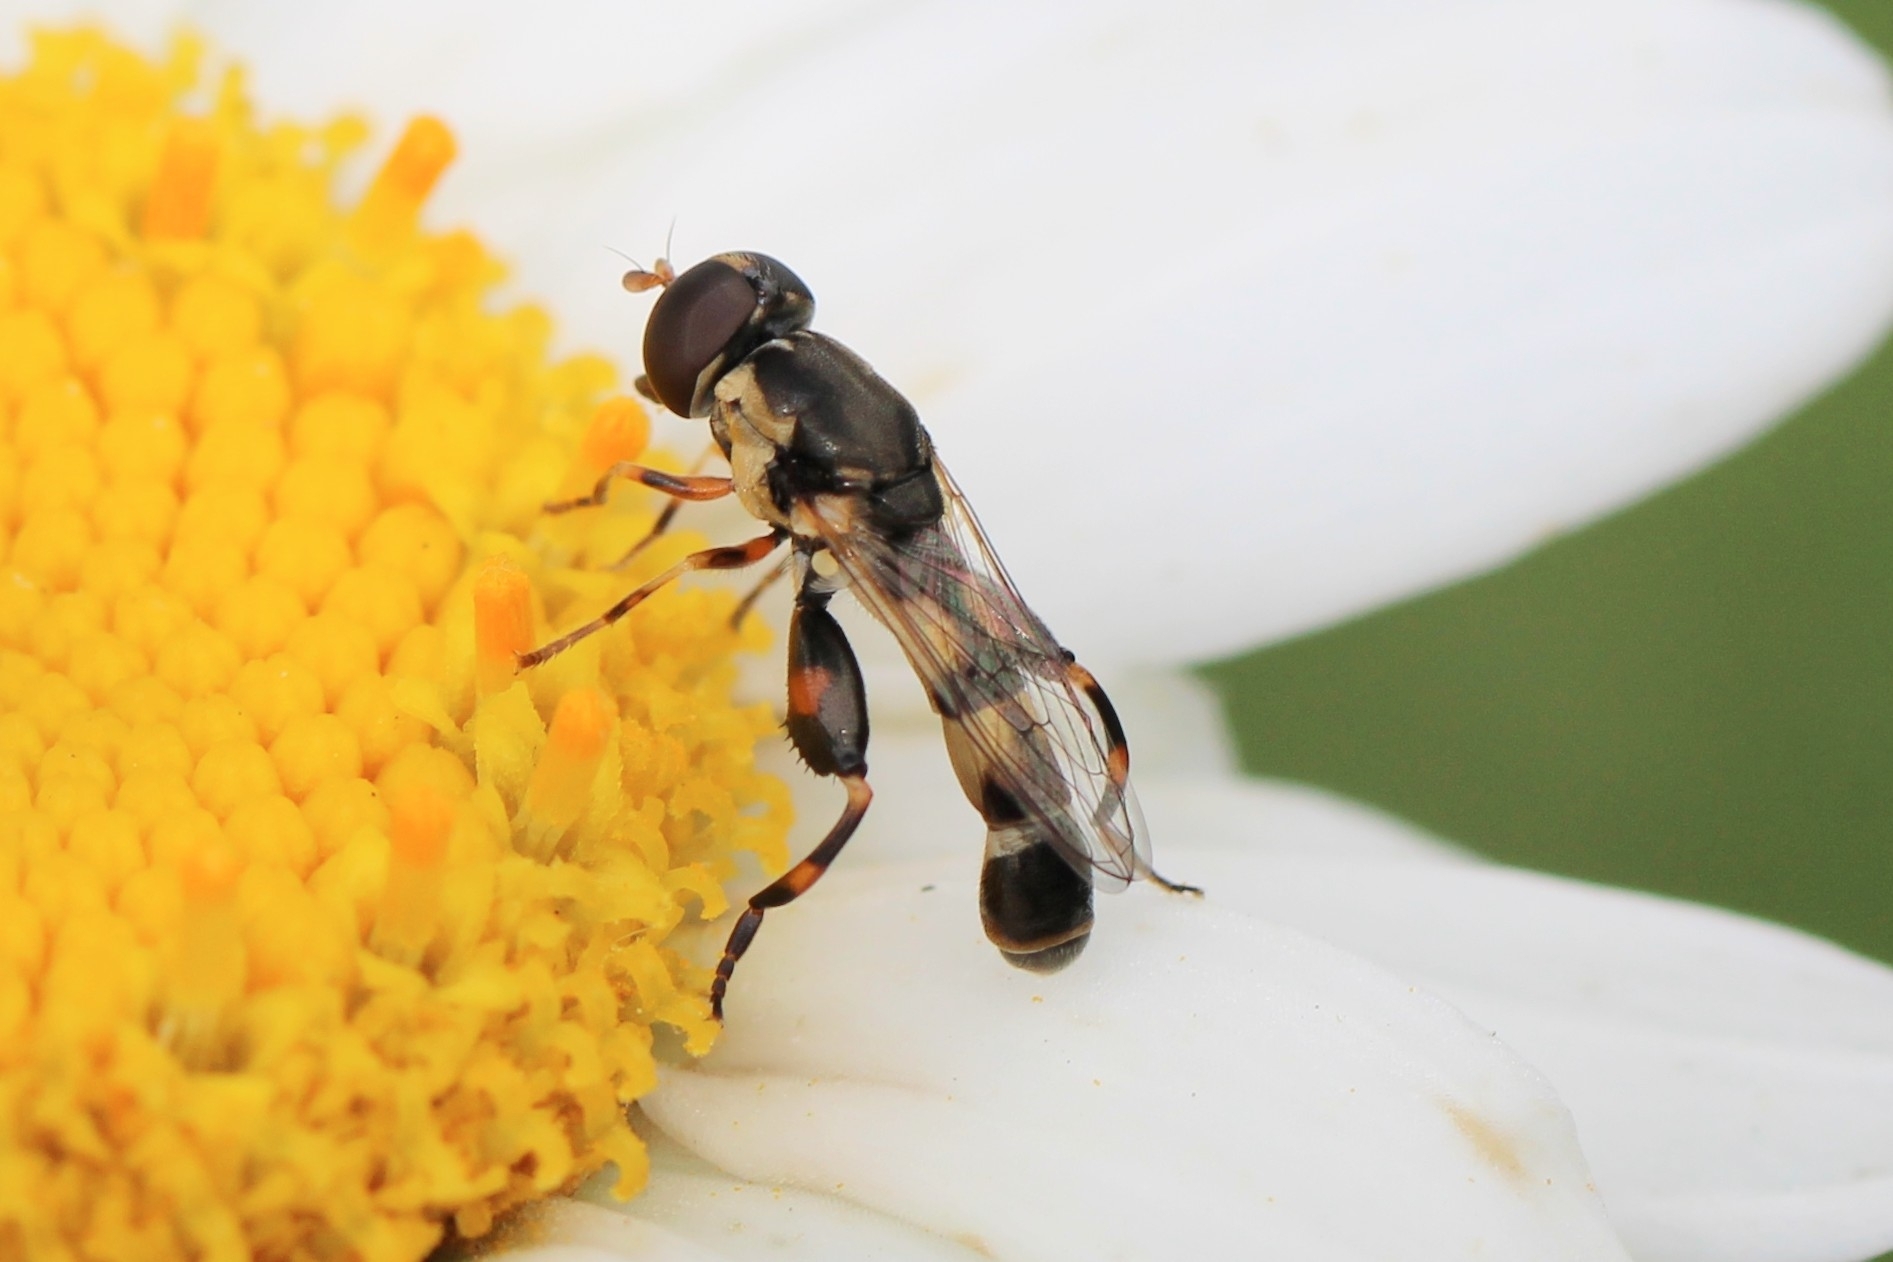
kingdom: Animalia
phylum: Arthropoda
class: Insecta
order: Diptera
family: Syrphidae
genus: Syritta
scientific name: Syritta pipiens
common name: Hover fly
